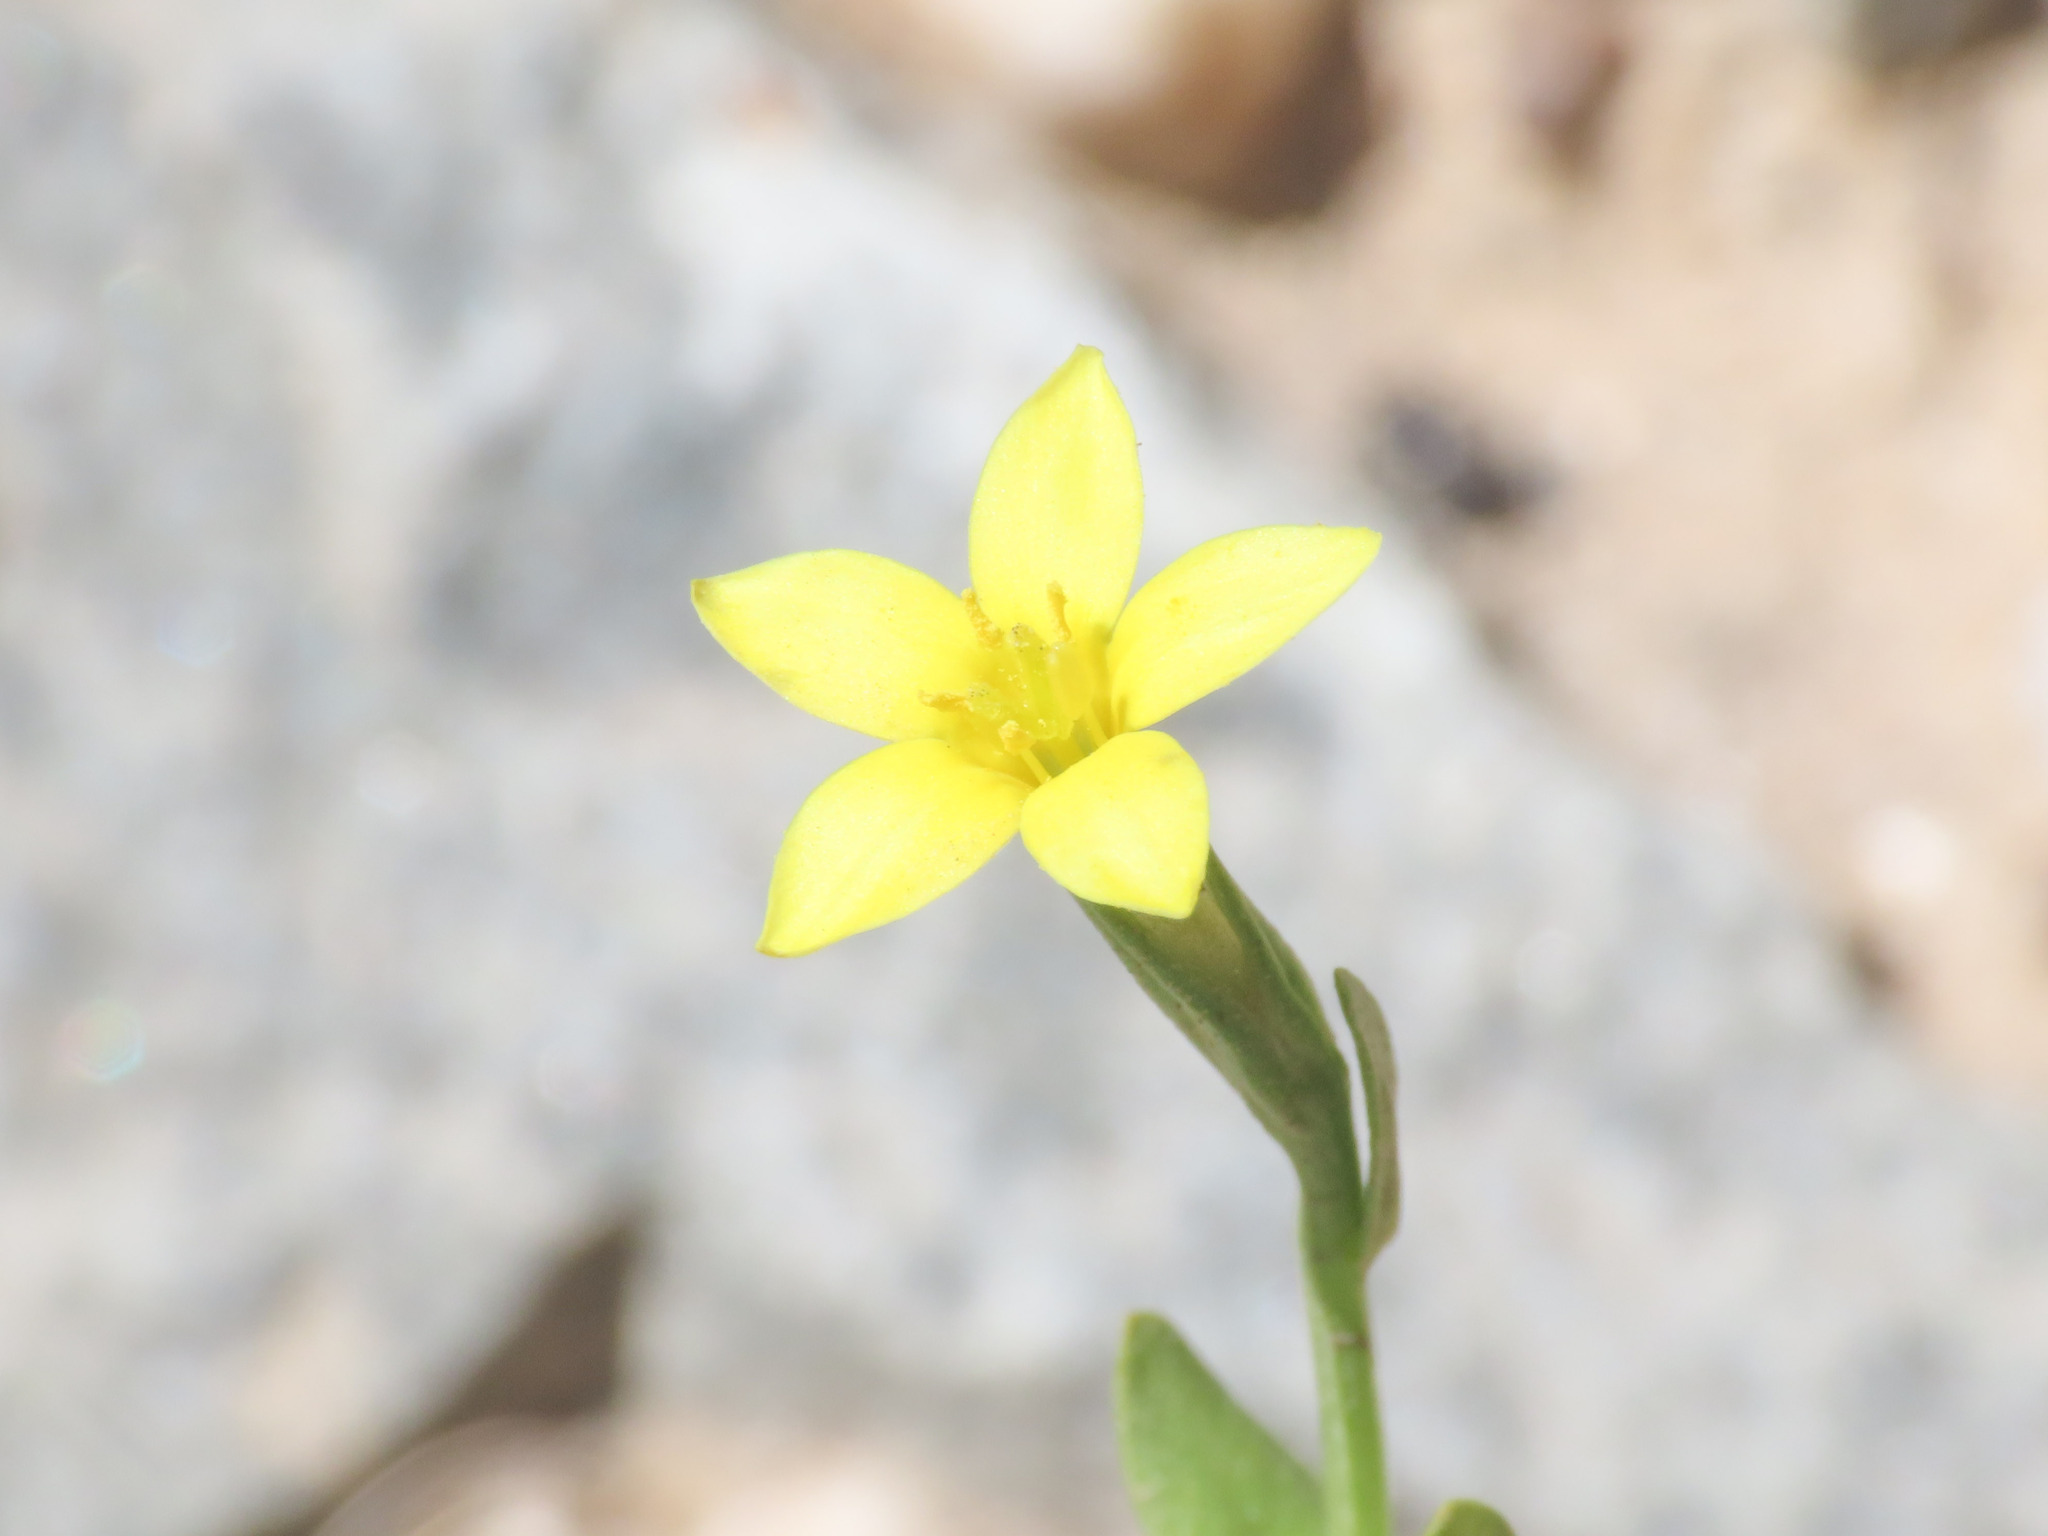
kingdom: Plantae
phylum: Tracheophyta
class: Magnoliopsida
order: Gentianales
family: Gentianaceae
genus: Centaurium
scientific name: Centaurium maritimum
